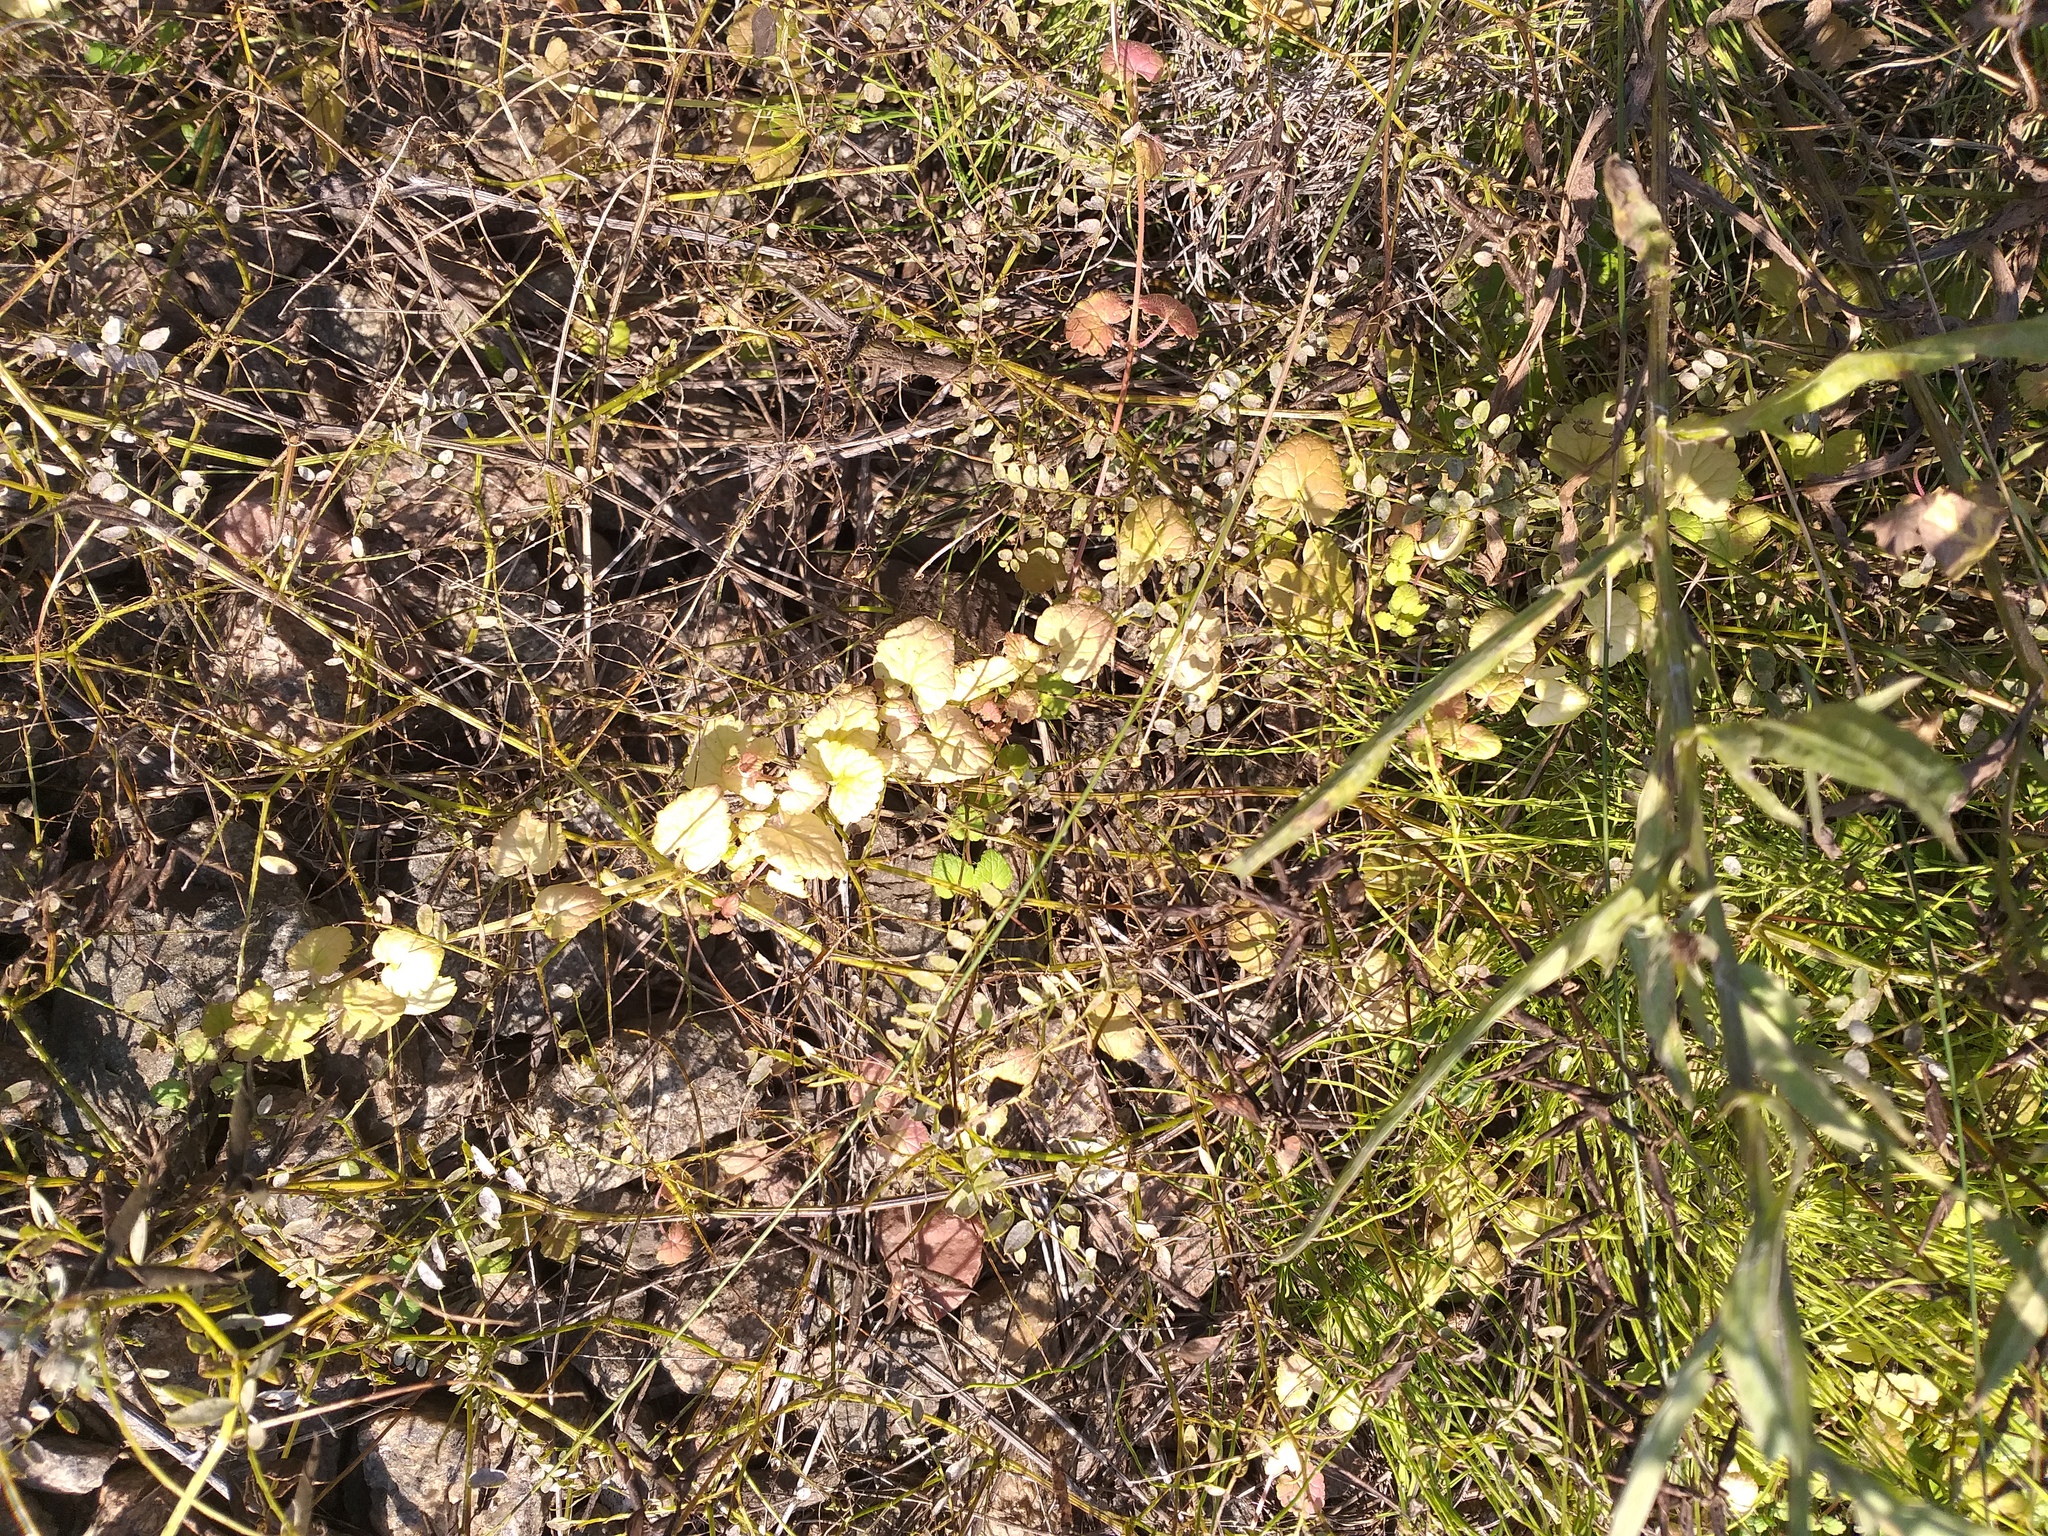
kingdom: Plantae
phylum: Tracheophyta
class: Magnoliopsida
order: Lamiales
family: Lamiaceae
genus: Glechoma
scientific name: Glechoma hederacea
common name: Ground ivy
